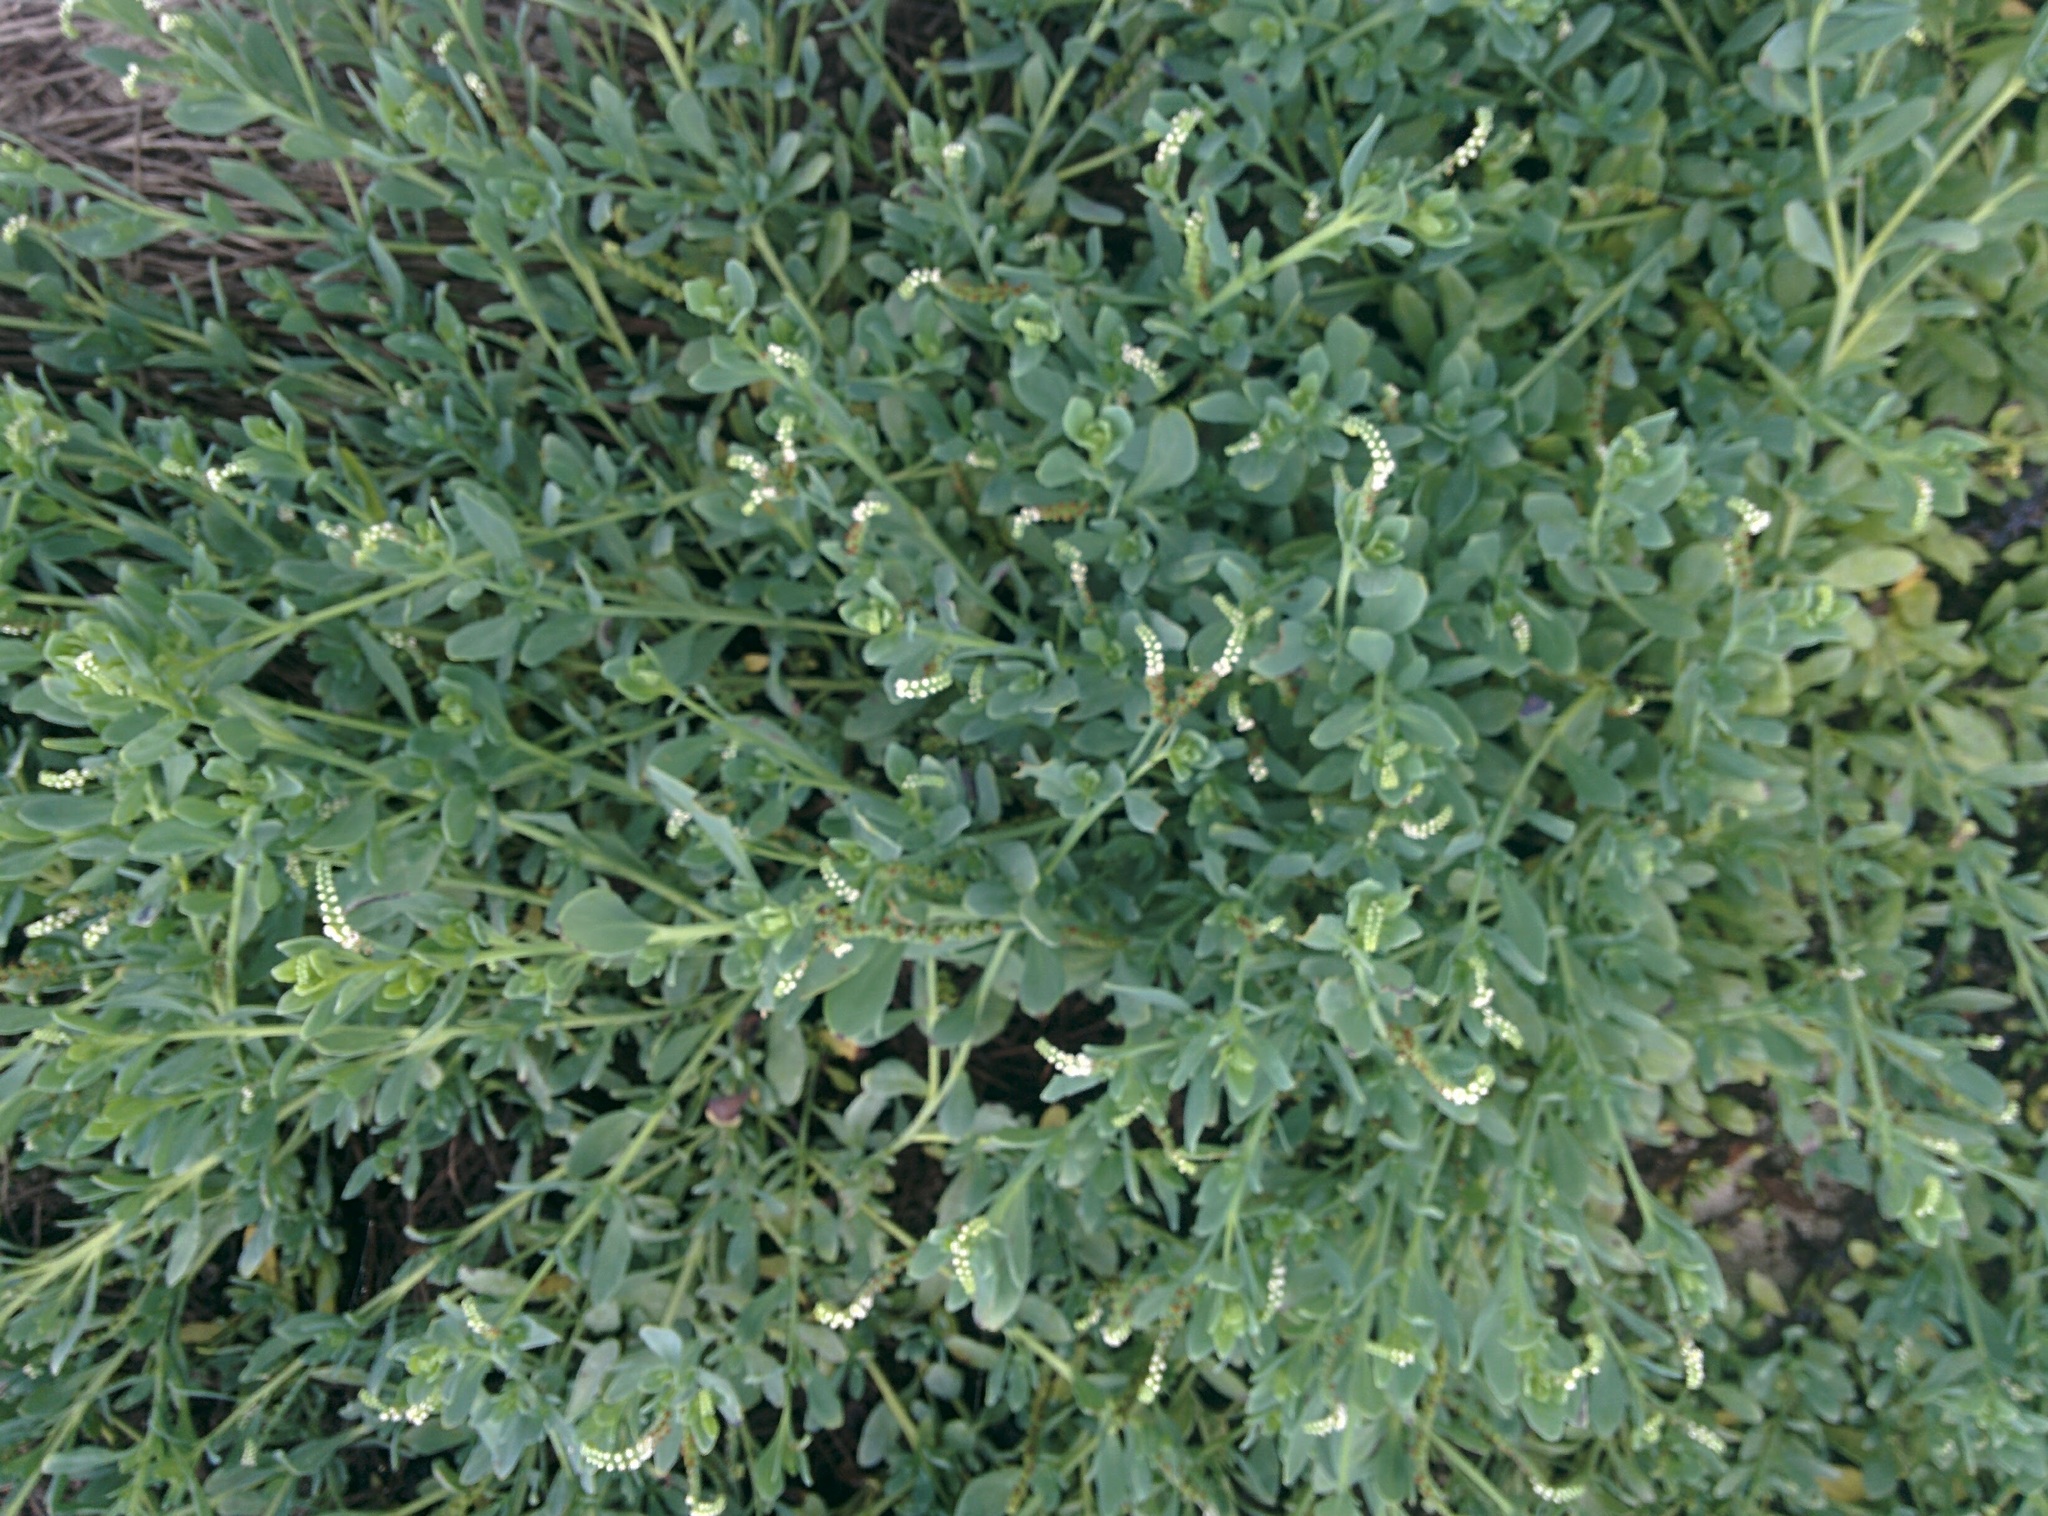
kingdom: Plantae
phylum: Tracheophyta
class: Magnoliopsida
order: Boraginales
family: Heliotropiaceae
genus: Heliotropium
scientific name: Heliotropium curassavicum
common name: Seaside heliotrope
